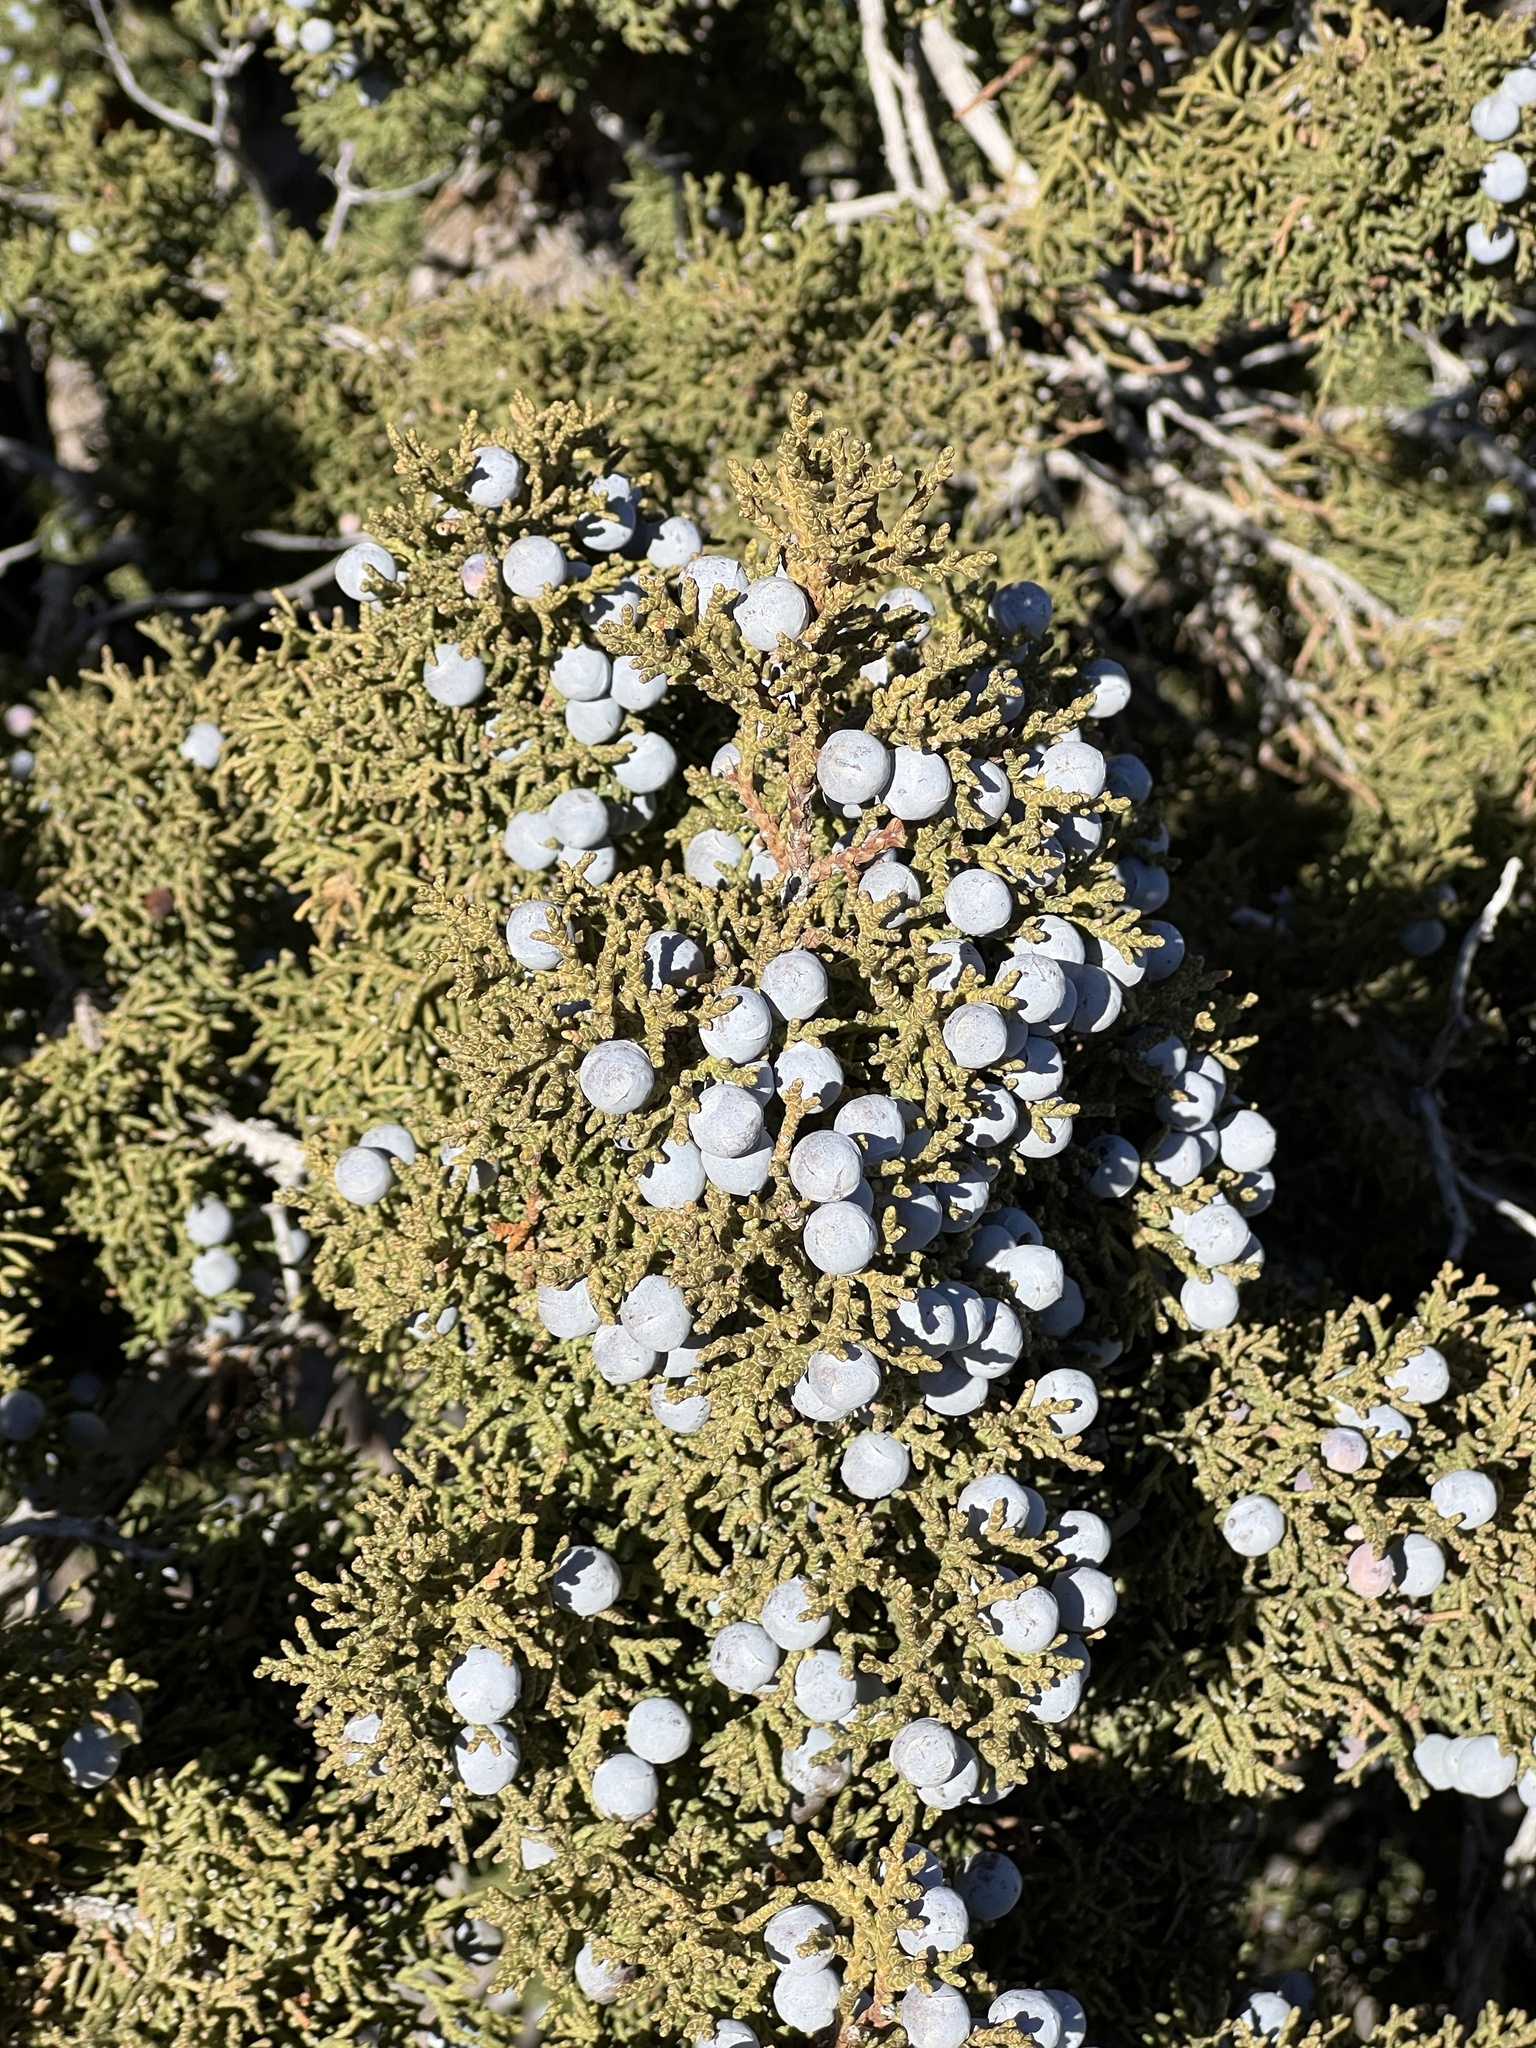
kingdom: Plantae
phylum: Tracheophyta
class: Pinopsida
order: Pinales
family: Cupressaceae
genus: Juniperus
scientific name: Juniperus osteosperma
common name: Utah juniper
